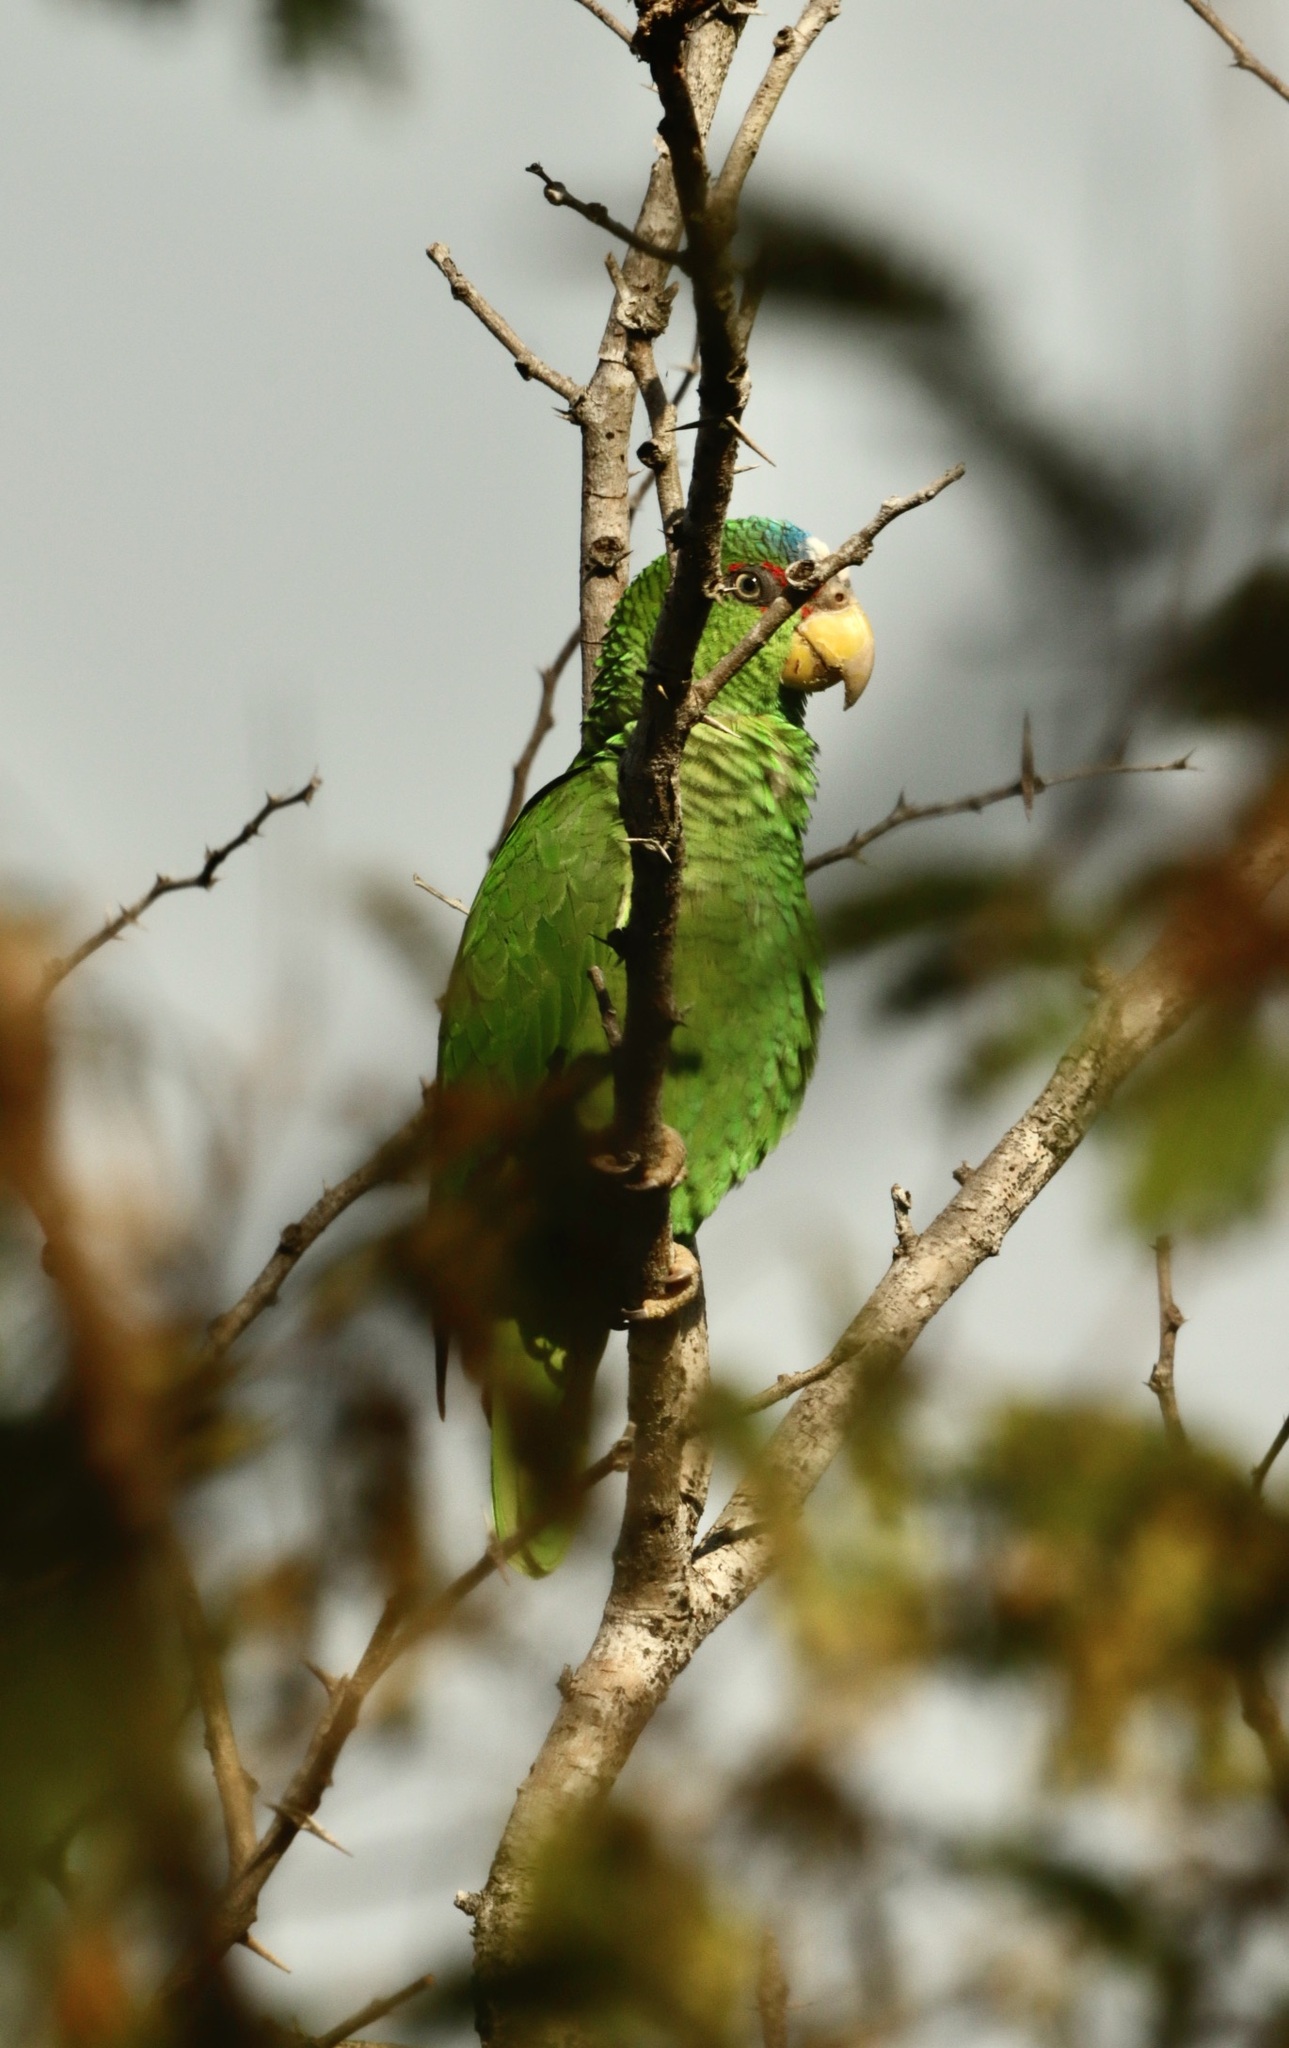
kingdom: Animalia
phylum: Chordata
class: Aves
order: Psittaciformes
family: Psittacidae
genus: Amazona
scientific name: Amazona albifrons
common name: White-fronted amazon
